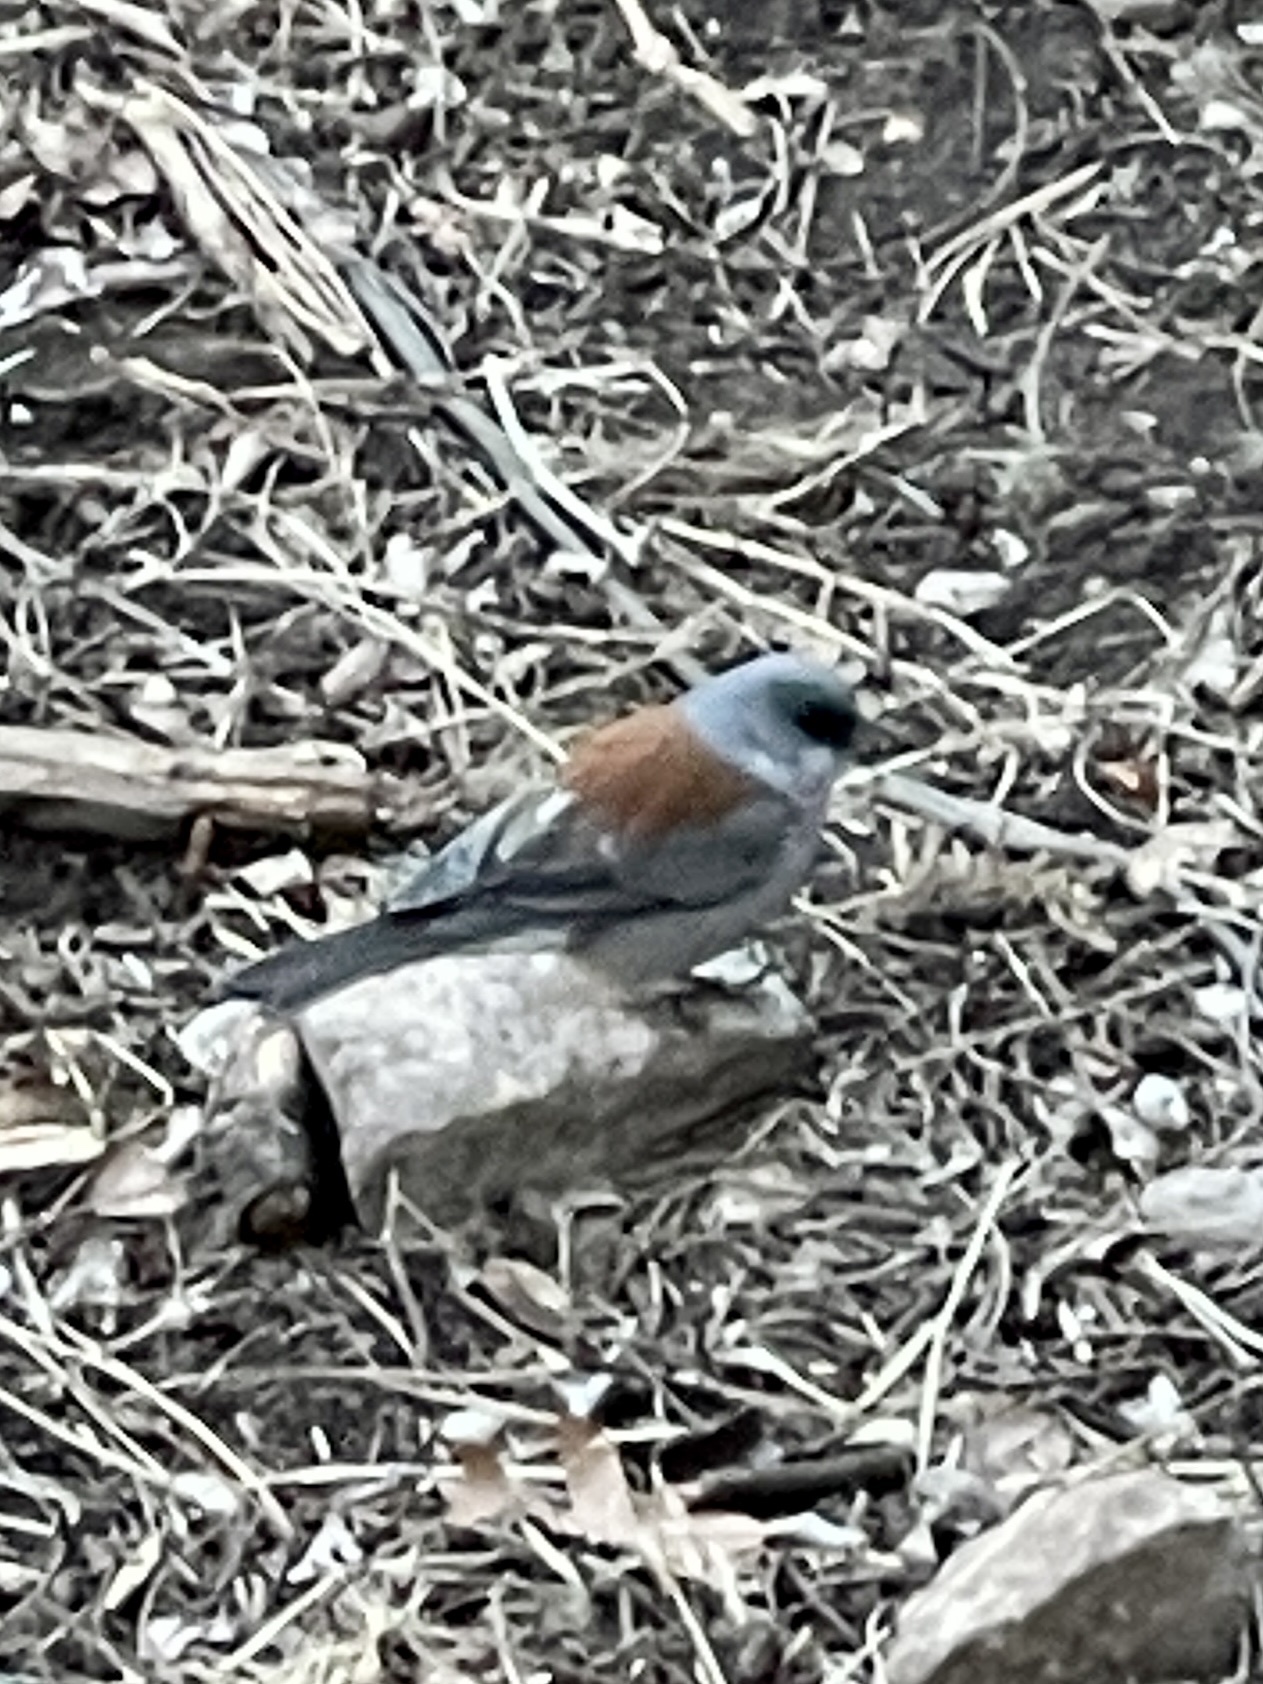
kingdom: Animalia
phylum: Chordata
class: Aves
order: Passeriformes
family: Passerellidae
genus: Junco
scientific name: Junco hyemalis
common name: Dark-eyed junco
